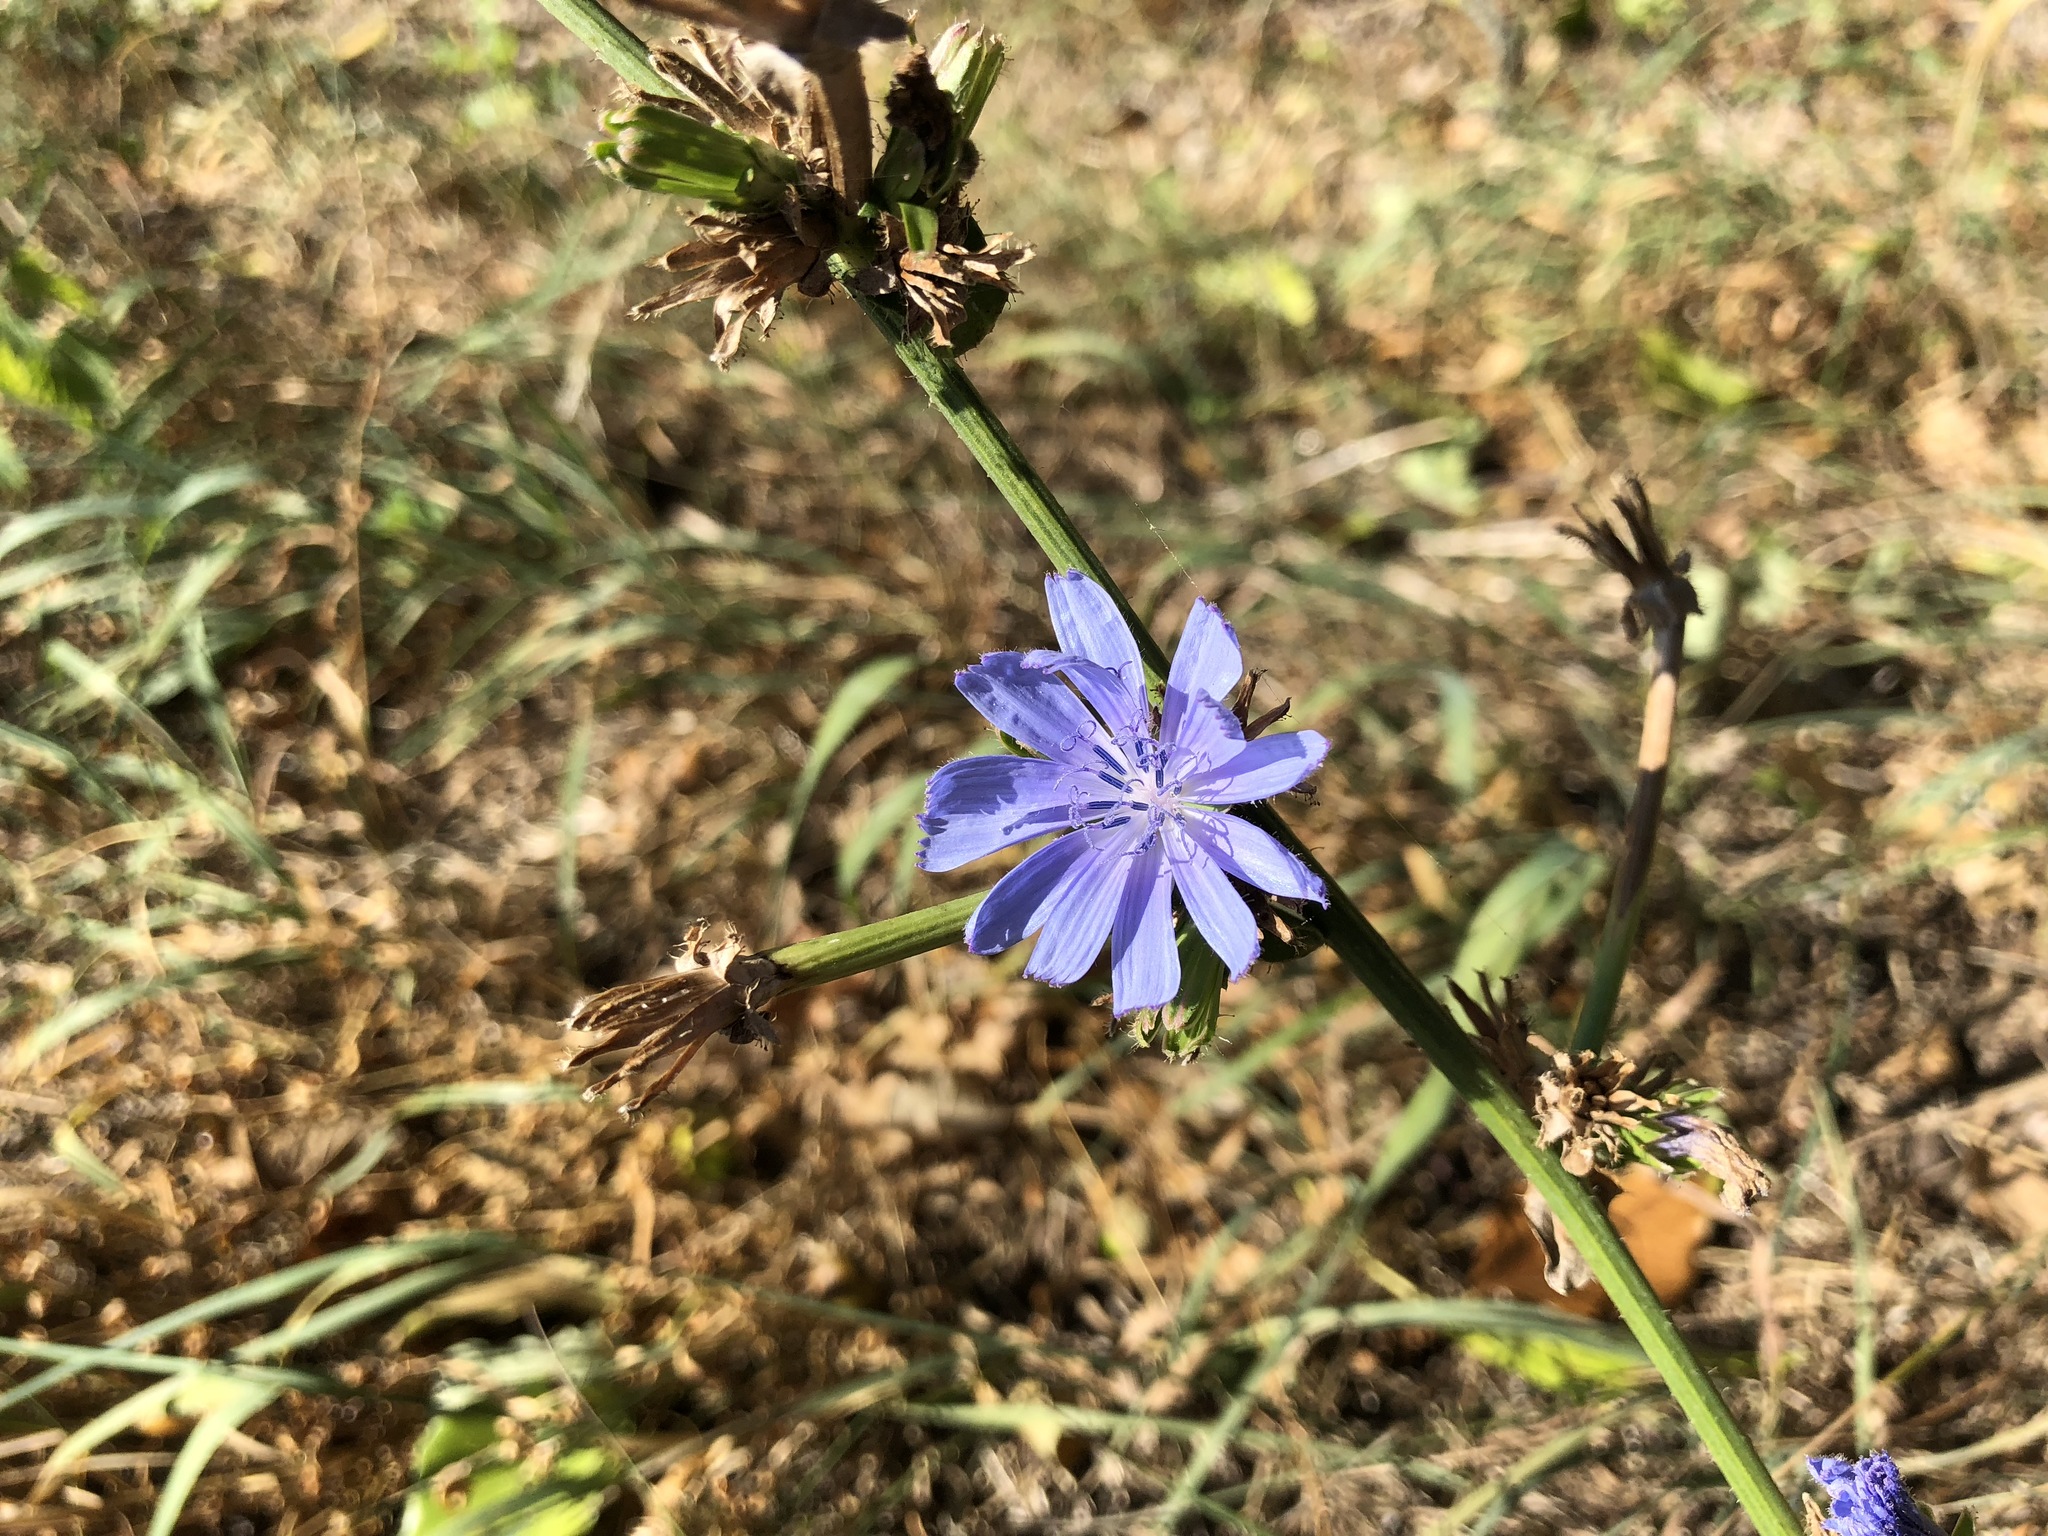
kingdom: Plantae
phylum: Tracheophyta
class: Magnoliopsida
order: Asterales
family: Asteraceae
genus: Cichorium
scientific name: Cichorium intybus
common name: Chicory
